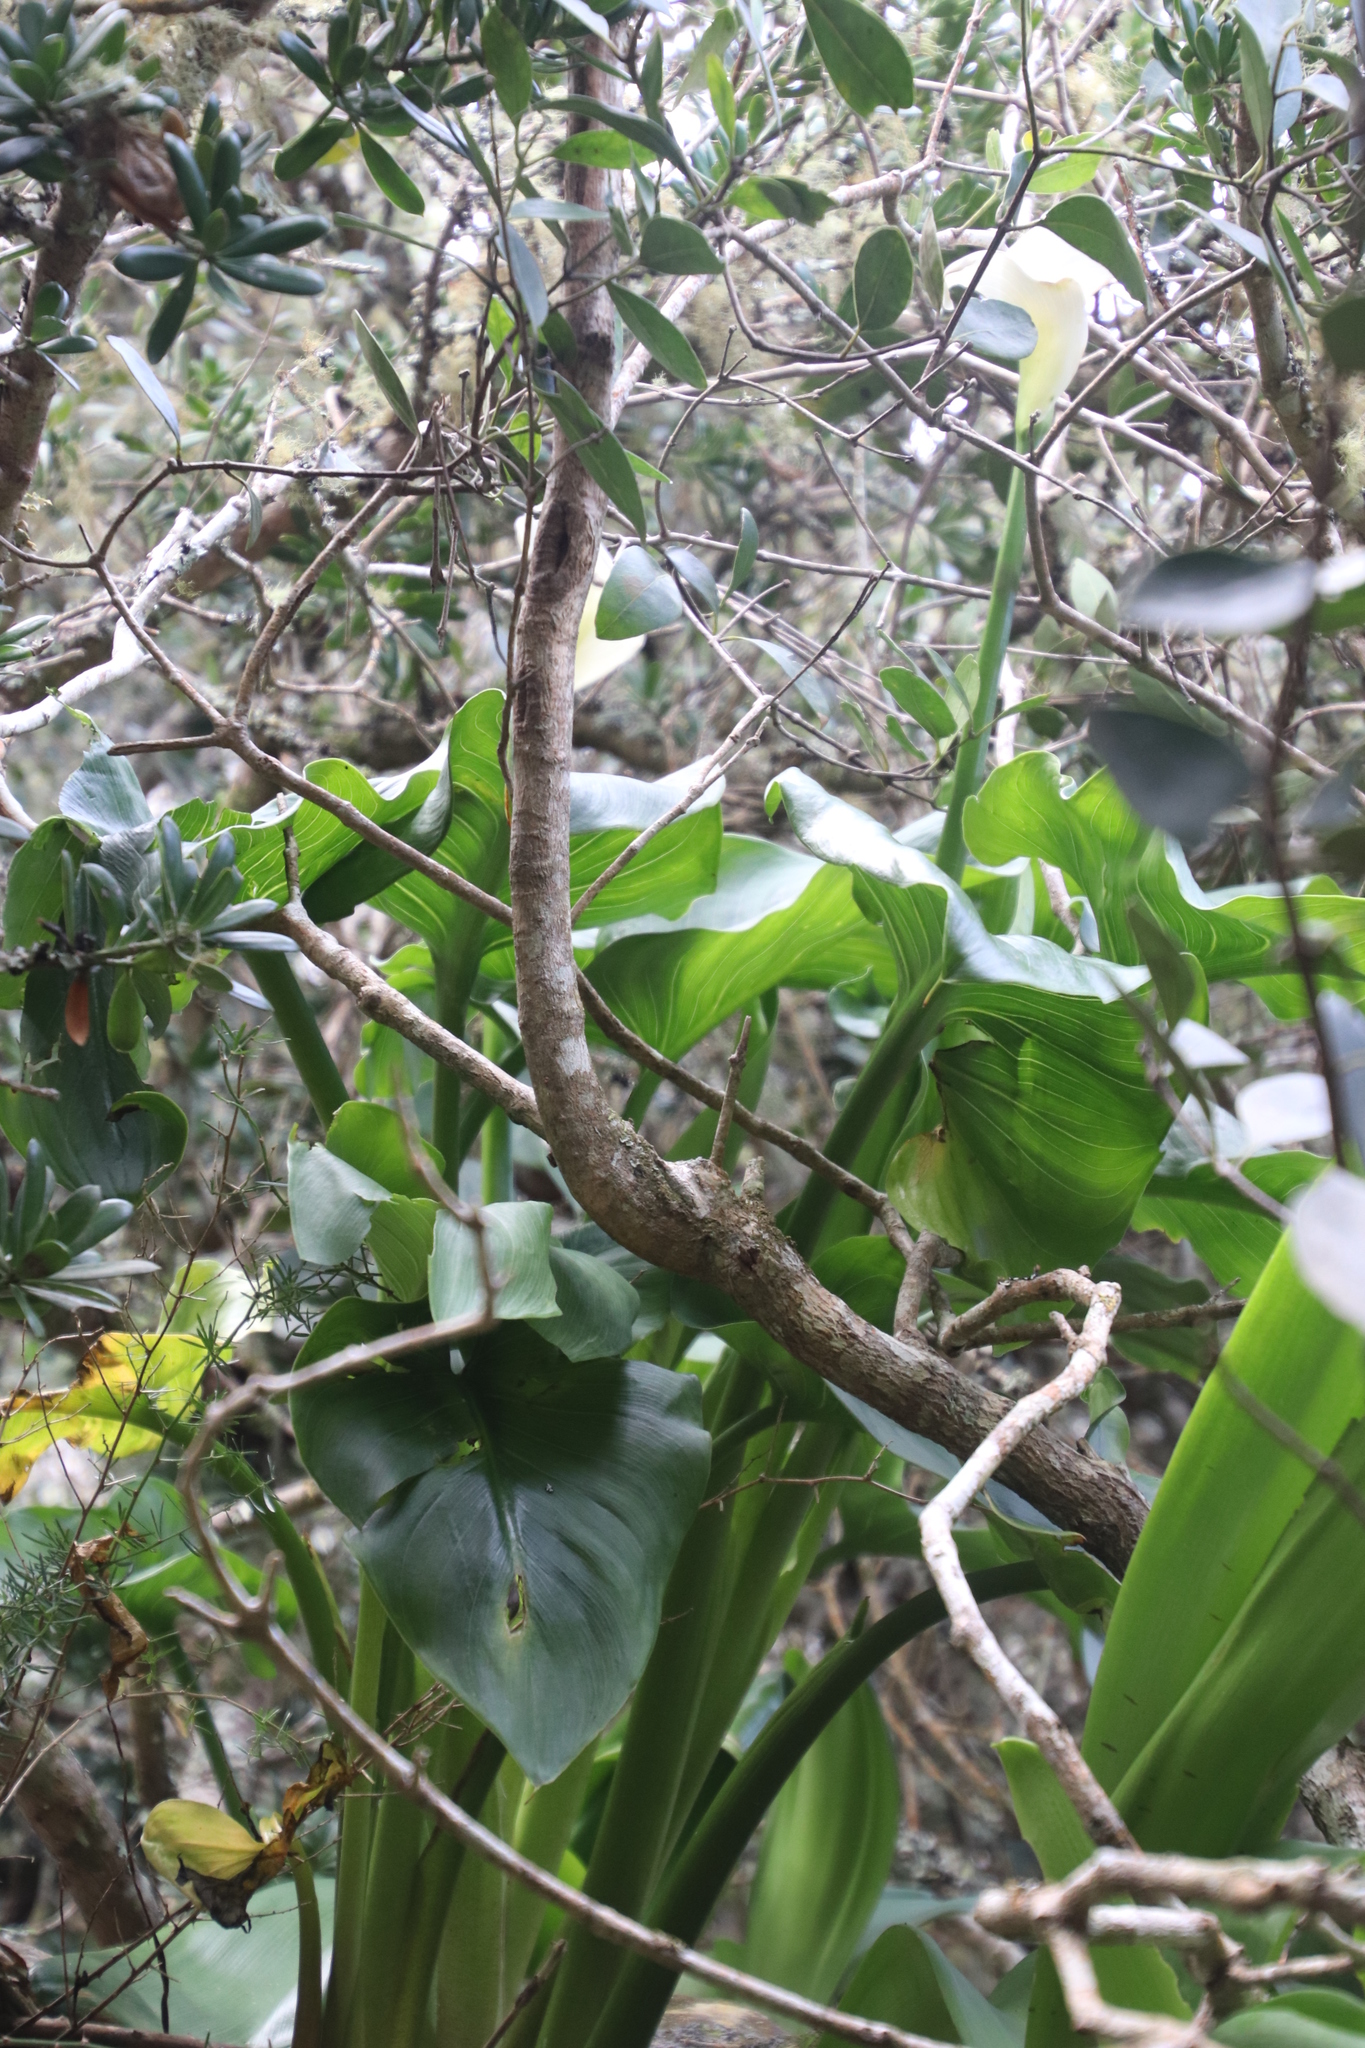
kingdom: Plantae
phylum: Tracheophyta
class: Liliopsida
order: Alismatales
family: Araceae
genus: Zantedeschia
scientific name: Zantedeschia aethiopica
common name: Altar-lily
